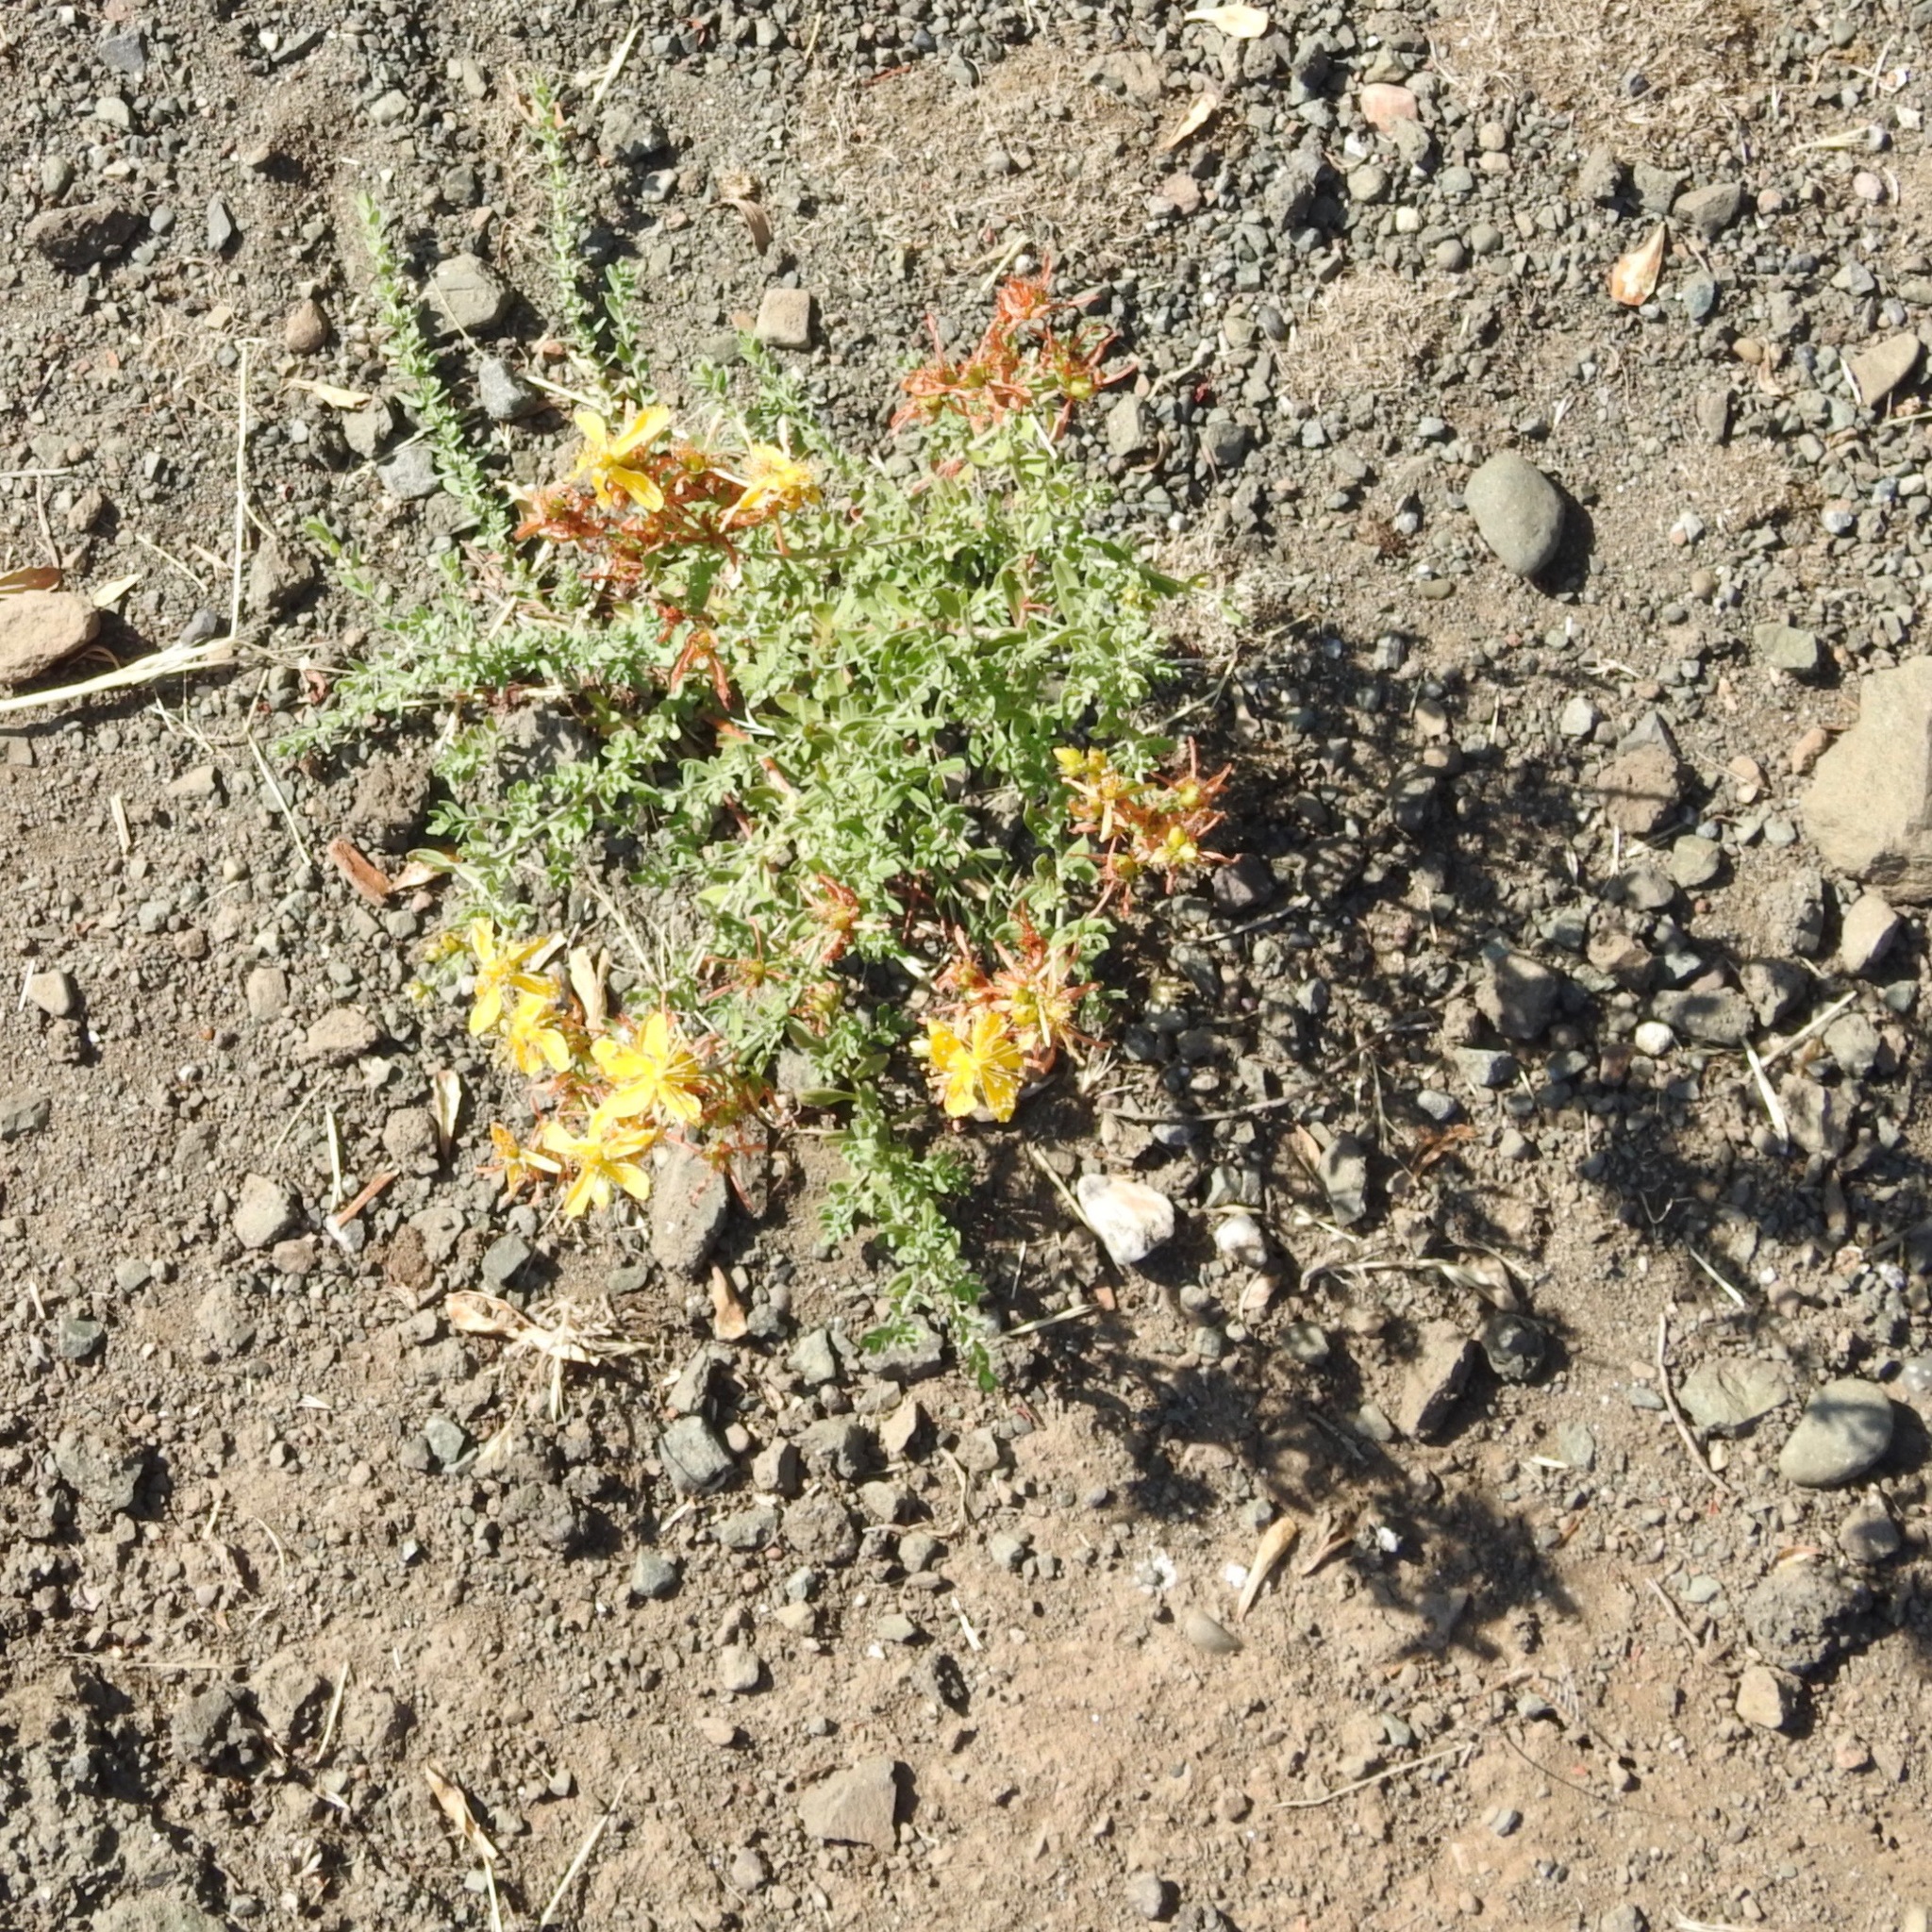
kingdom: Plantae
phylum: Tracheophyta
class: Magnoliopsida
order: Malpighiales
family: Hypericaceae
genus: Hypericum
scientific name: Hypericum perforatum
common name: Common st. johnswort
